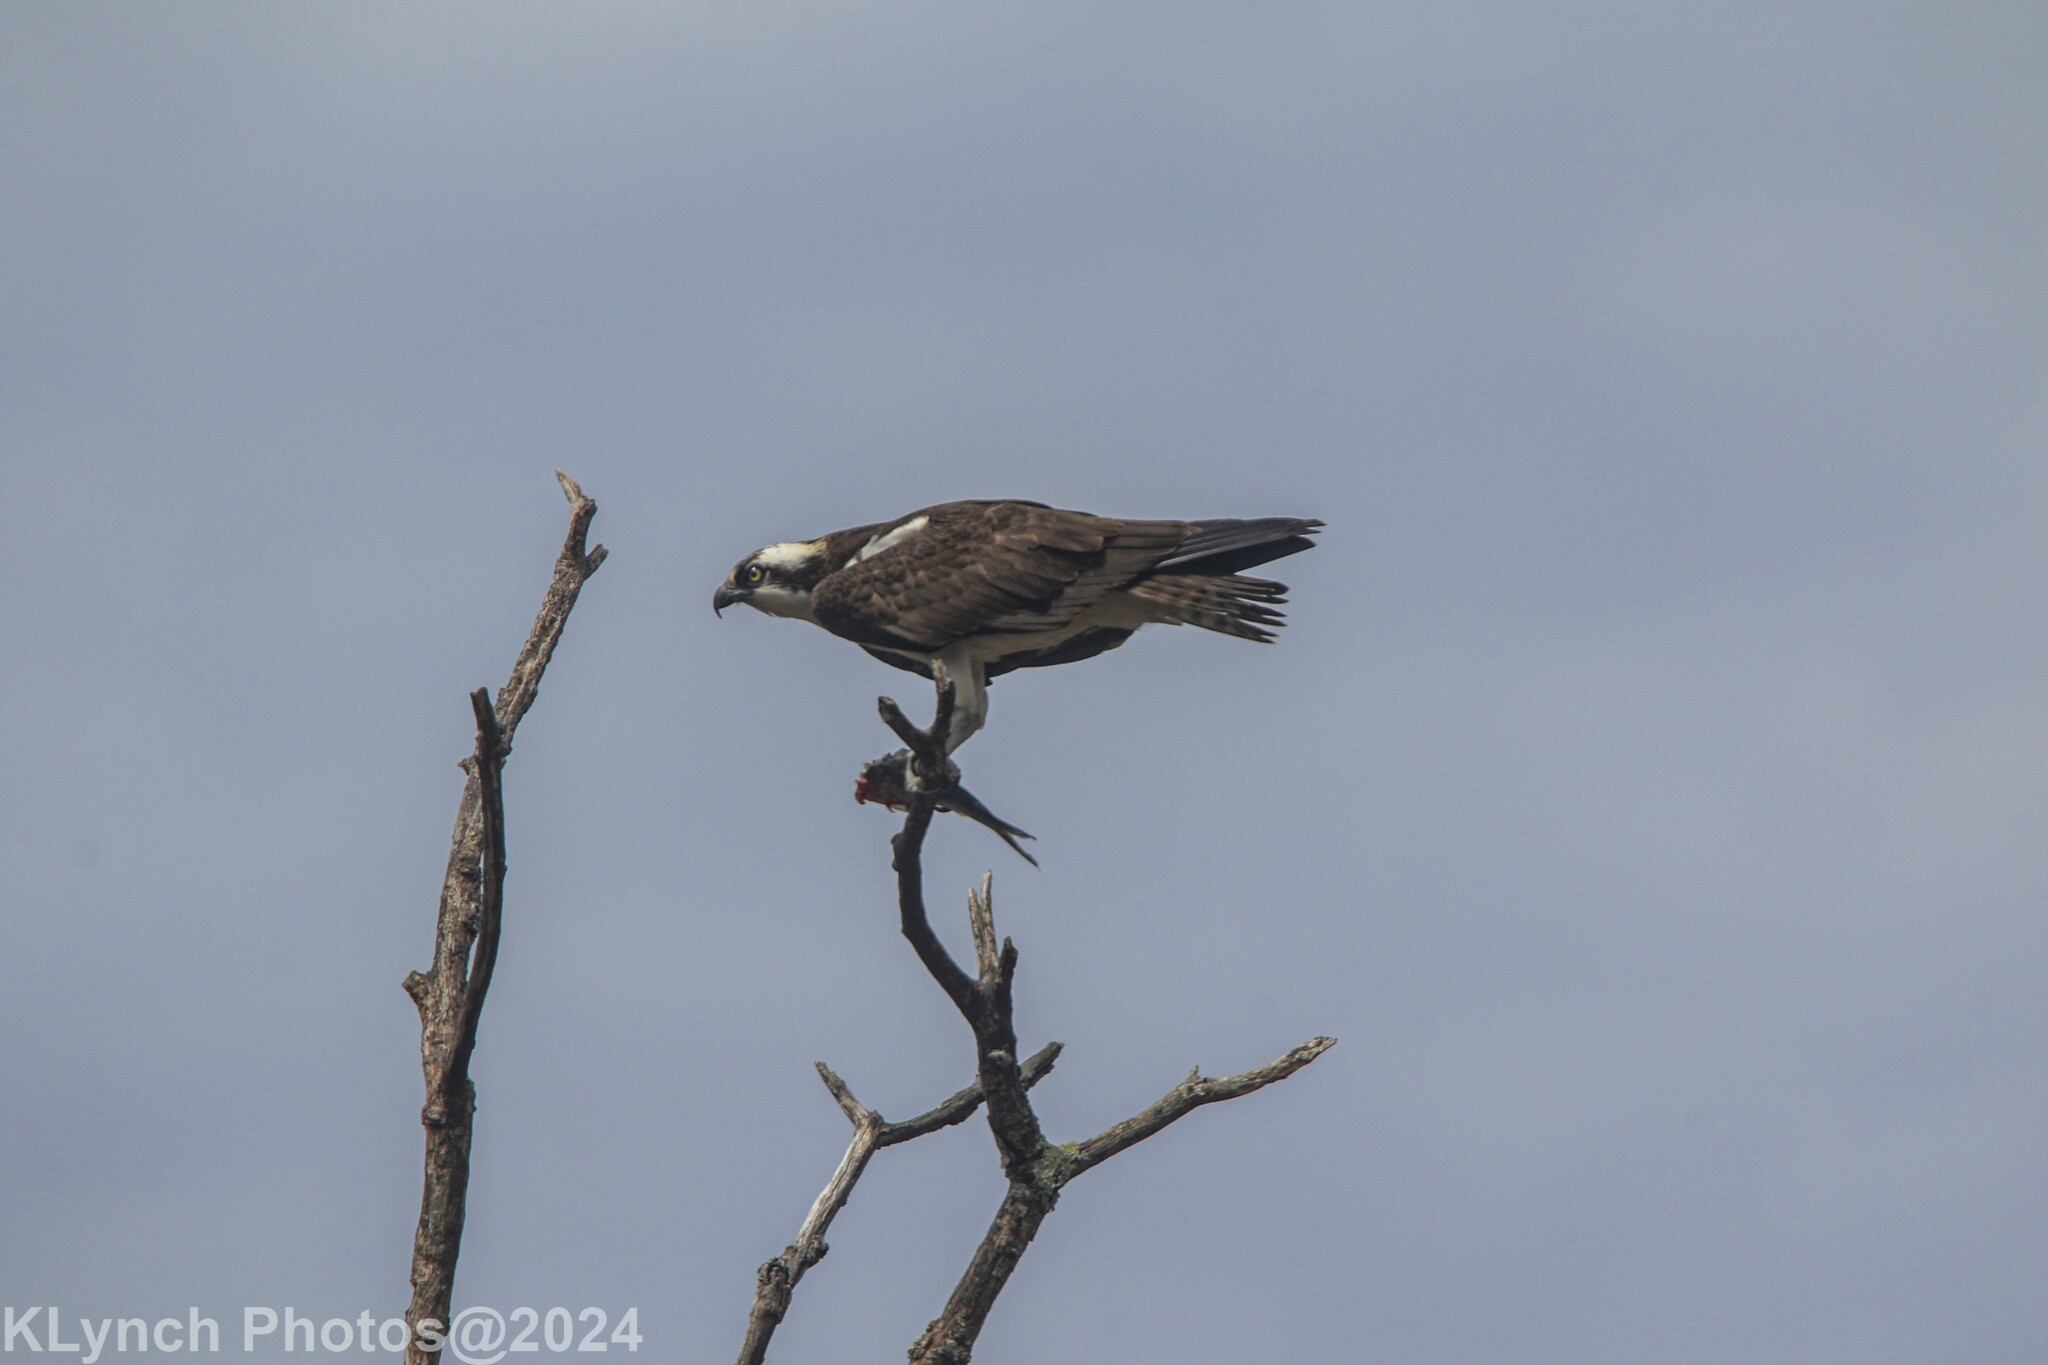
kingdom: Animalia
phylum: Chordata
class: Aves
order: Accipitriformes
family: Pandionidae
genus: Pandion
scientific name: Pandion haliaetus
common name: Osprey
